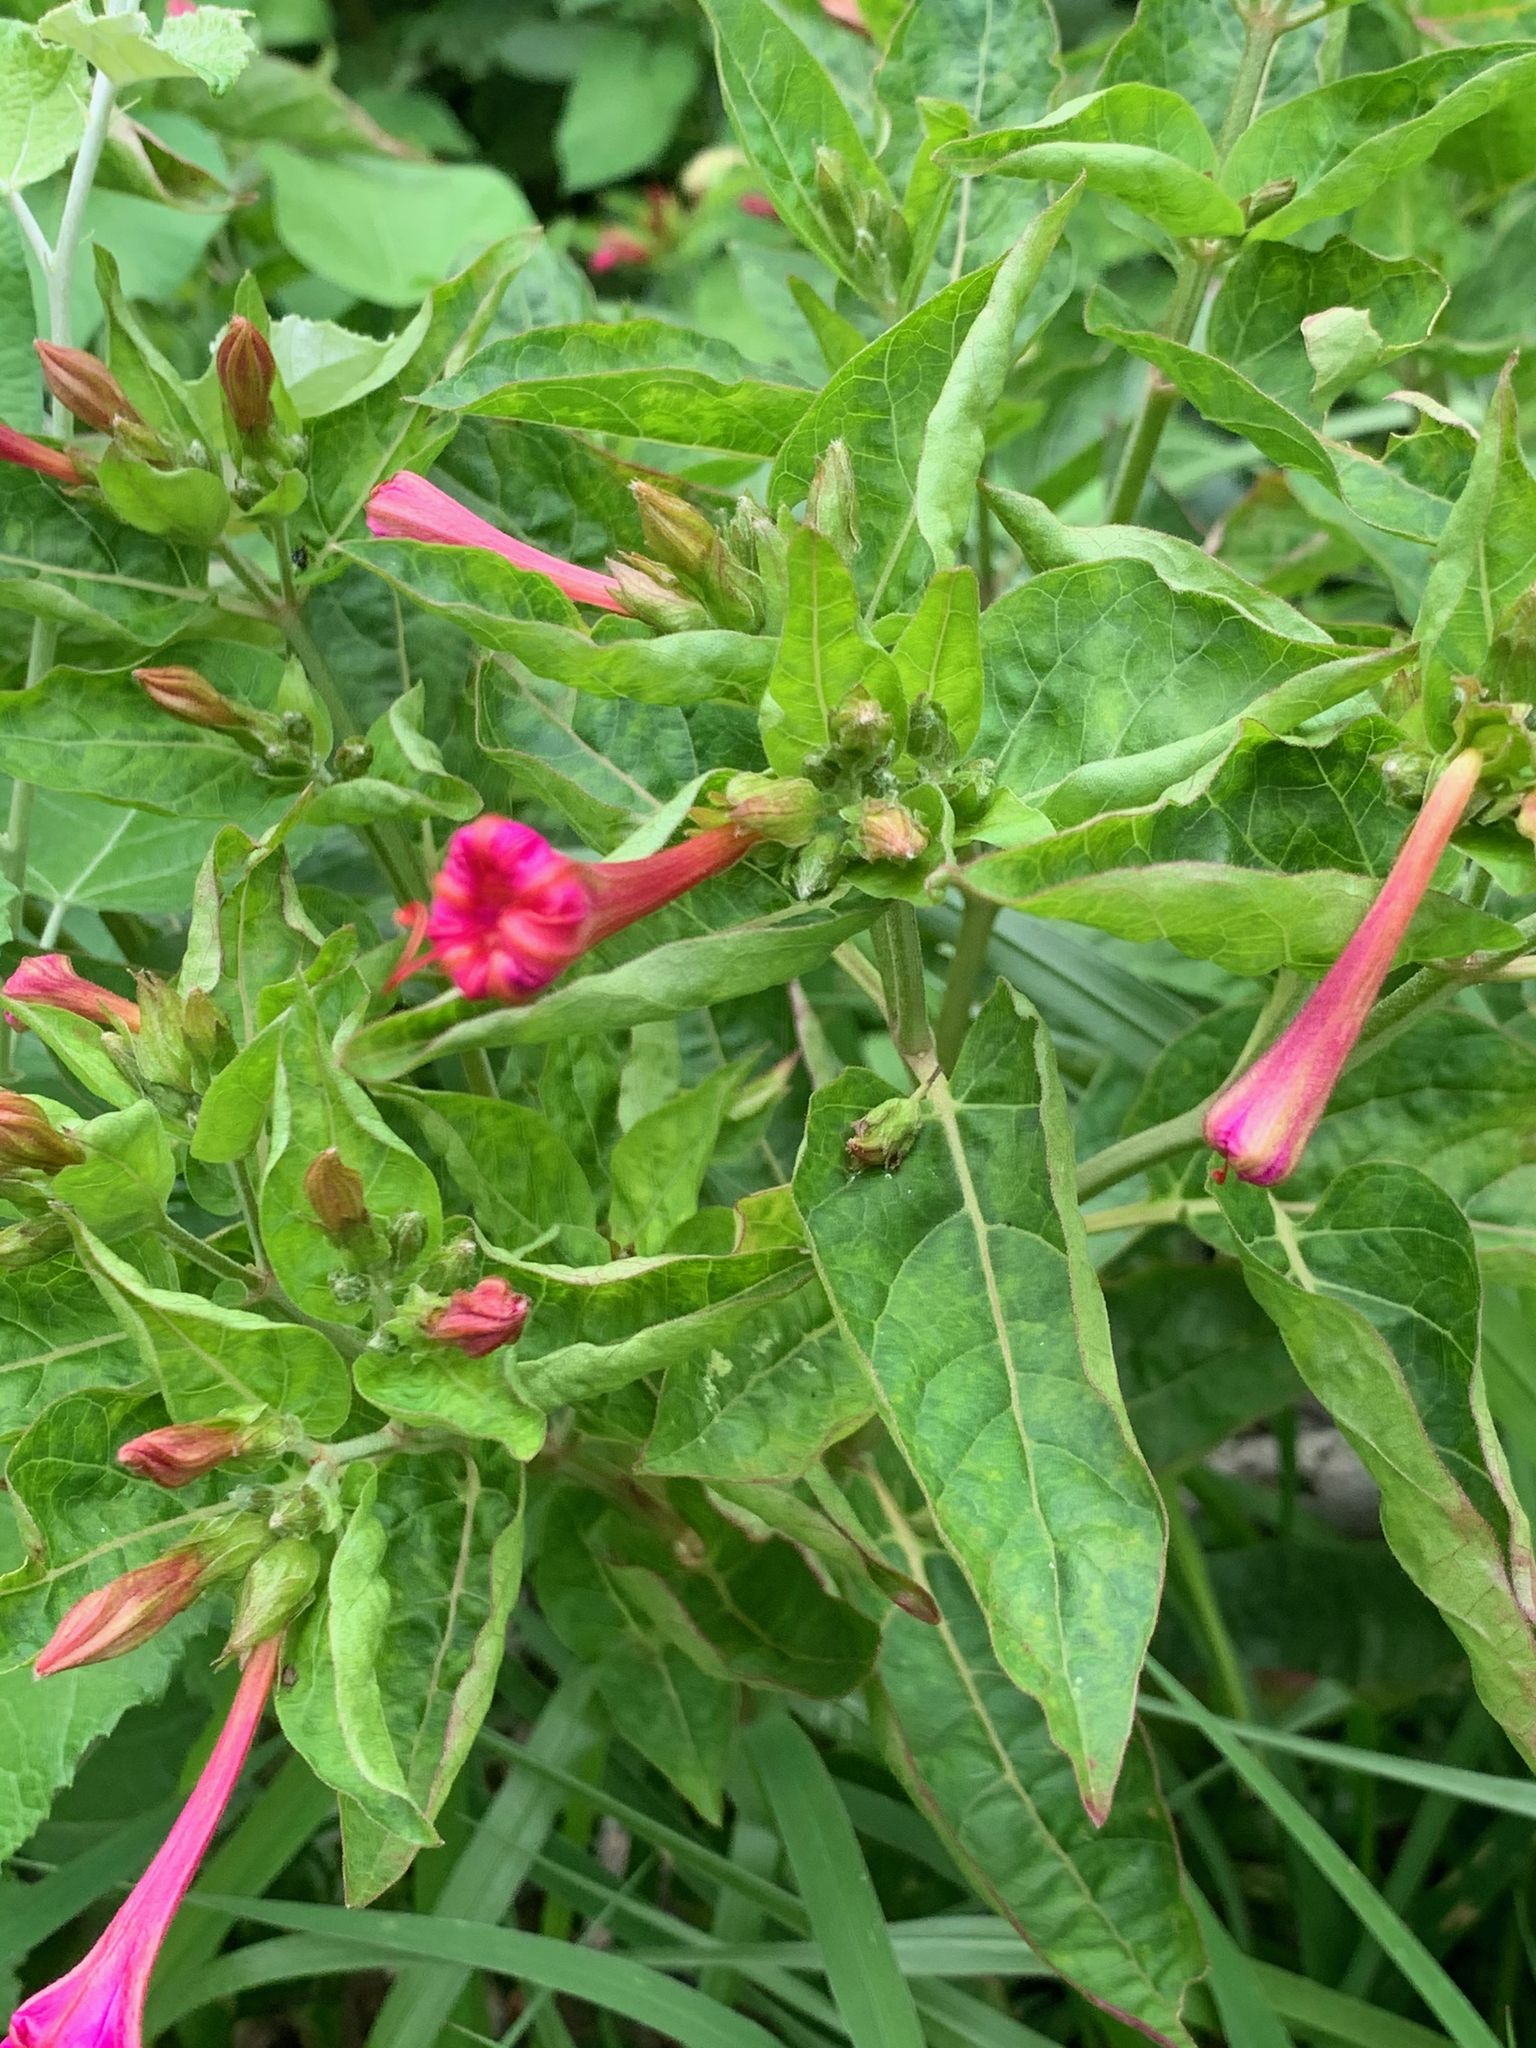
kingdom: Plantae
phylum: Tracheophyta
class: Magnoliopsida
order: Caryophyllales
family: Nyctaginaceae
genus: Mirabilis
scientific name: Mirabilis jalapa
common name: Marvel-of-peru
